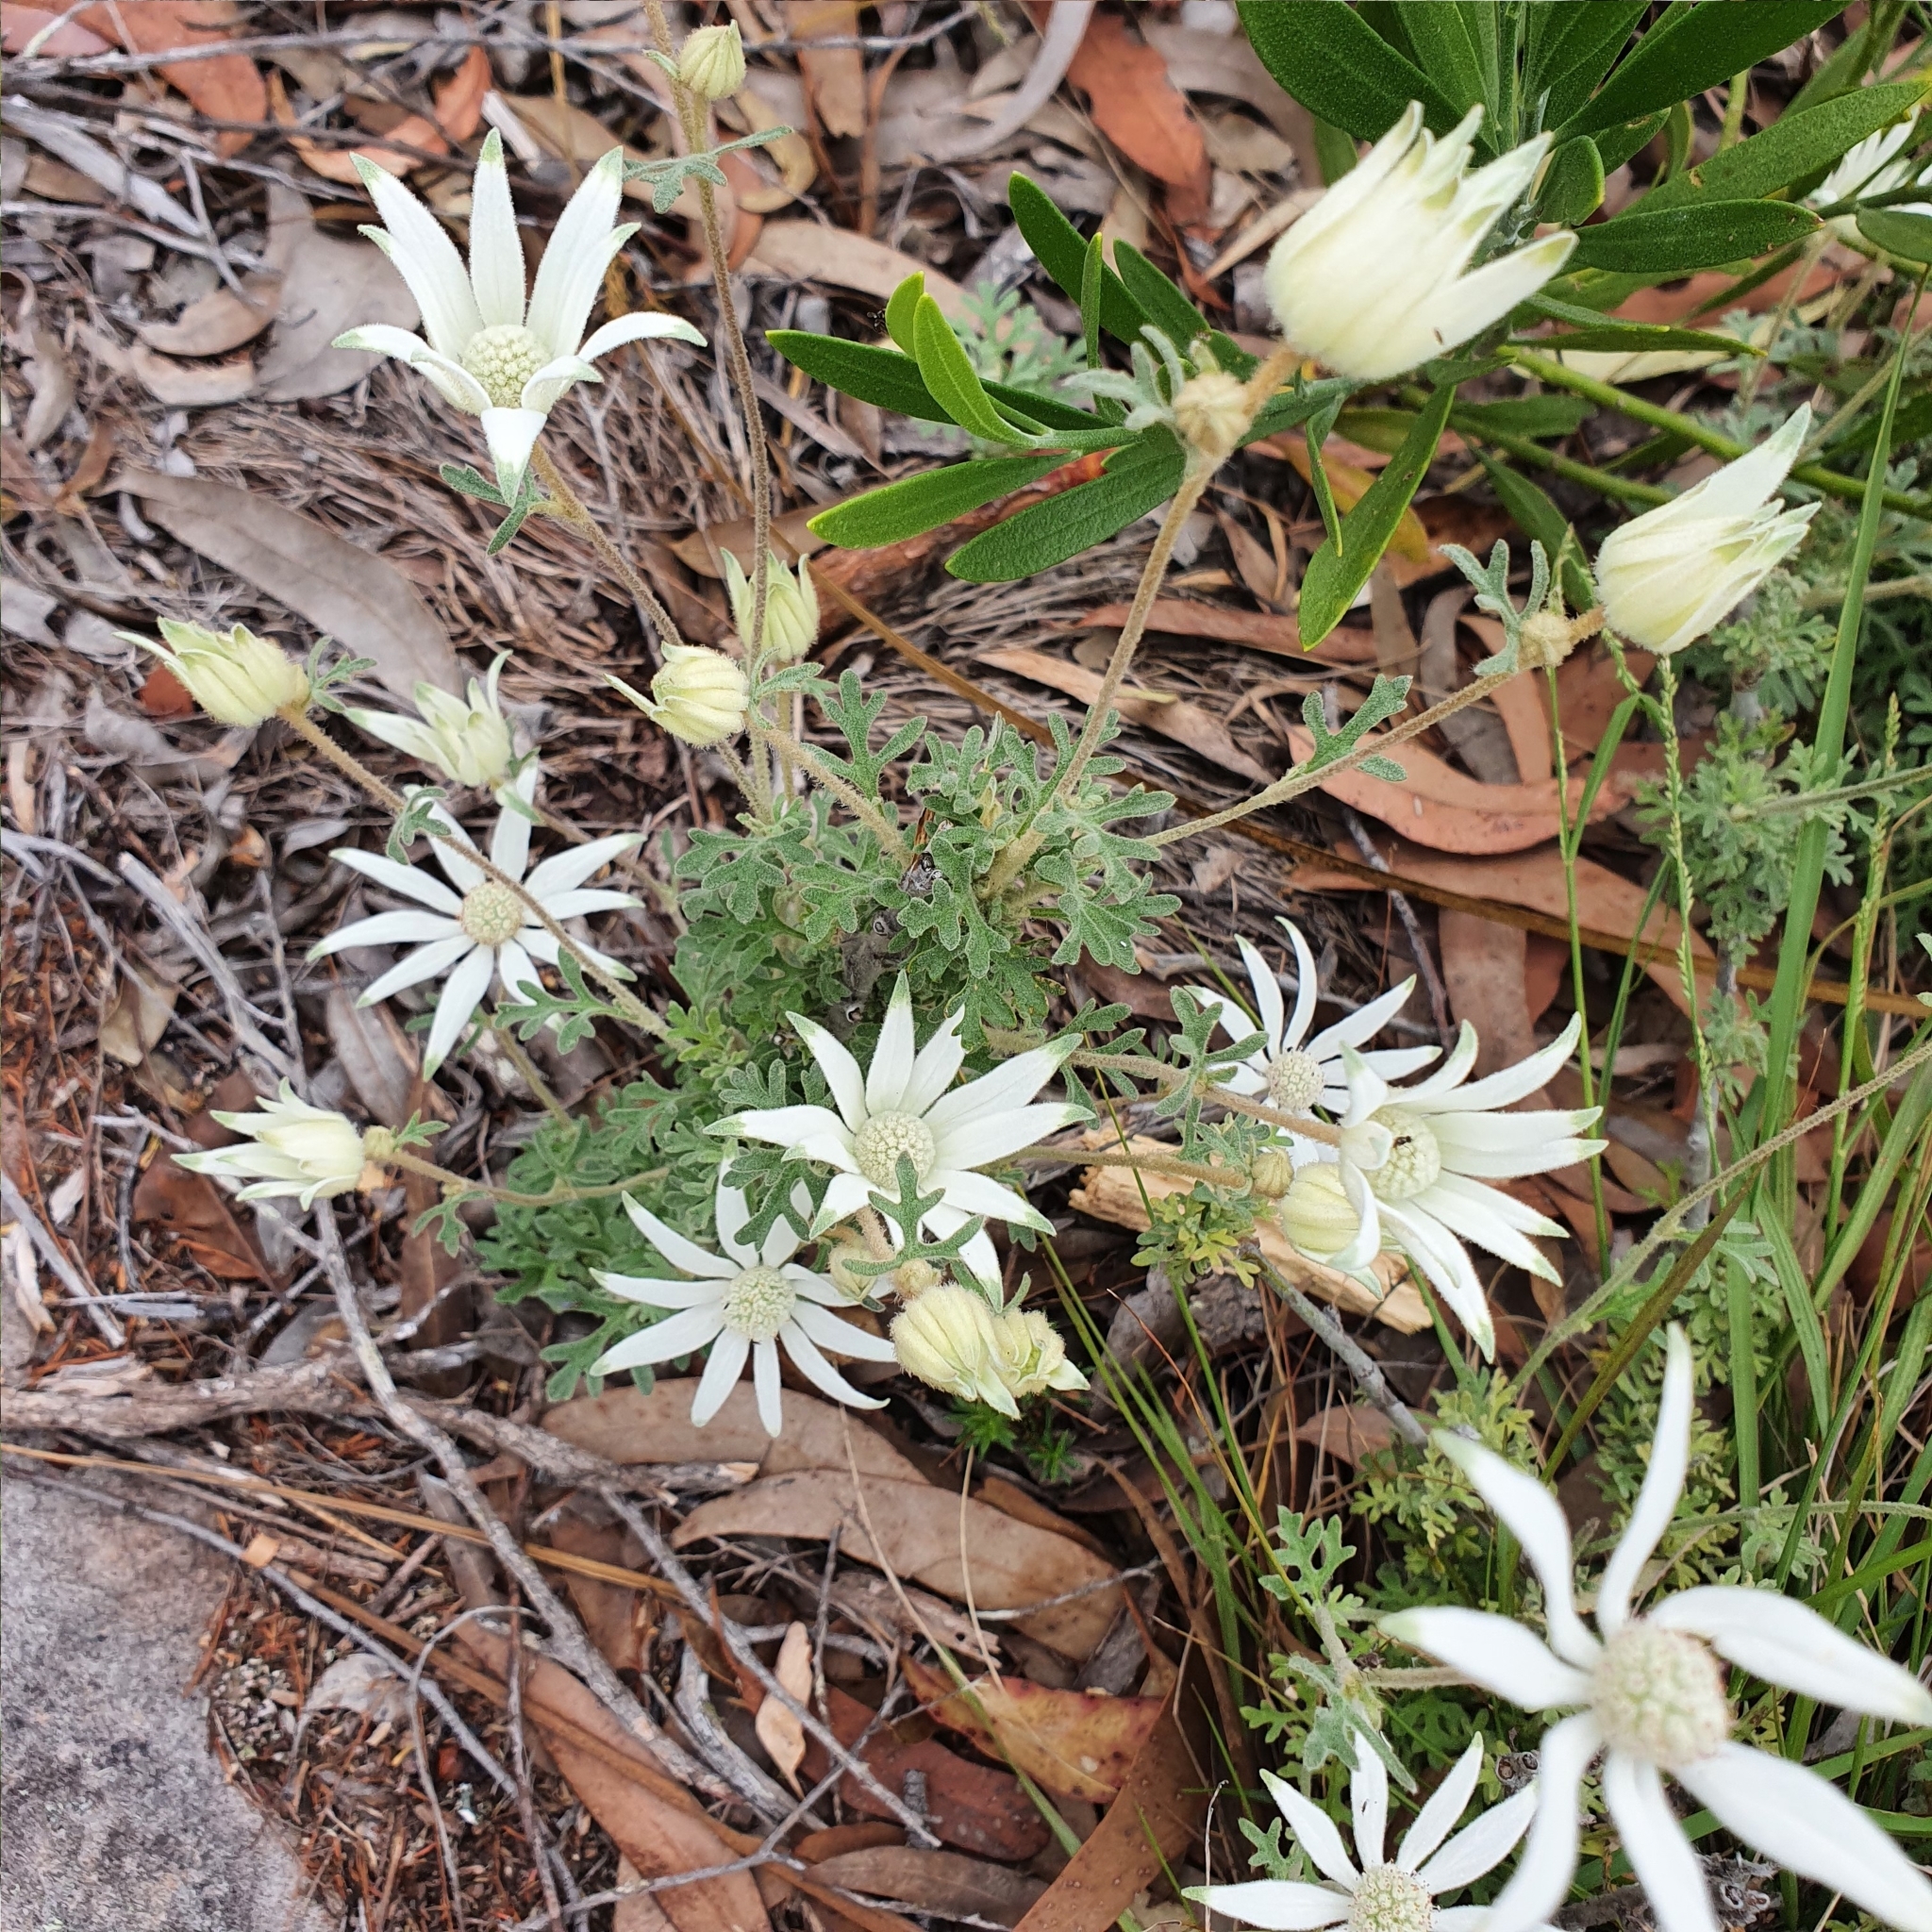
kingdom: Plantae
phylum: Tracheophyta
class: Magnoliopsida
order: Apiales
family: Apiaceae
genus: Actinotus
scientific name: Actinotus helianthi
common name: Flannel-flower
